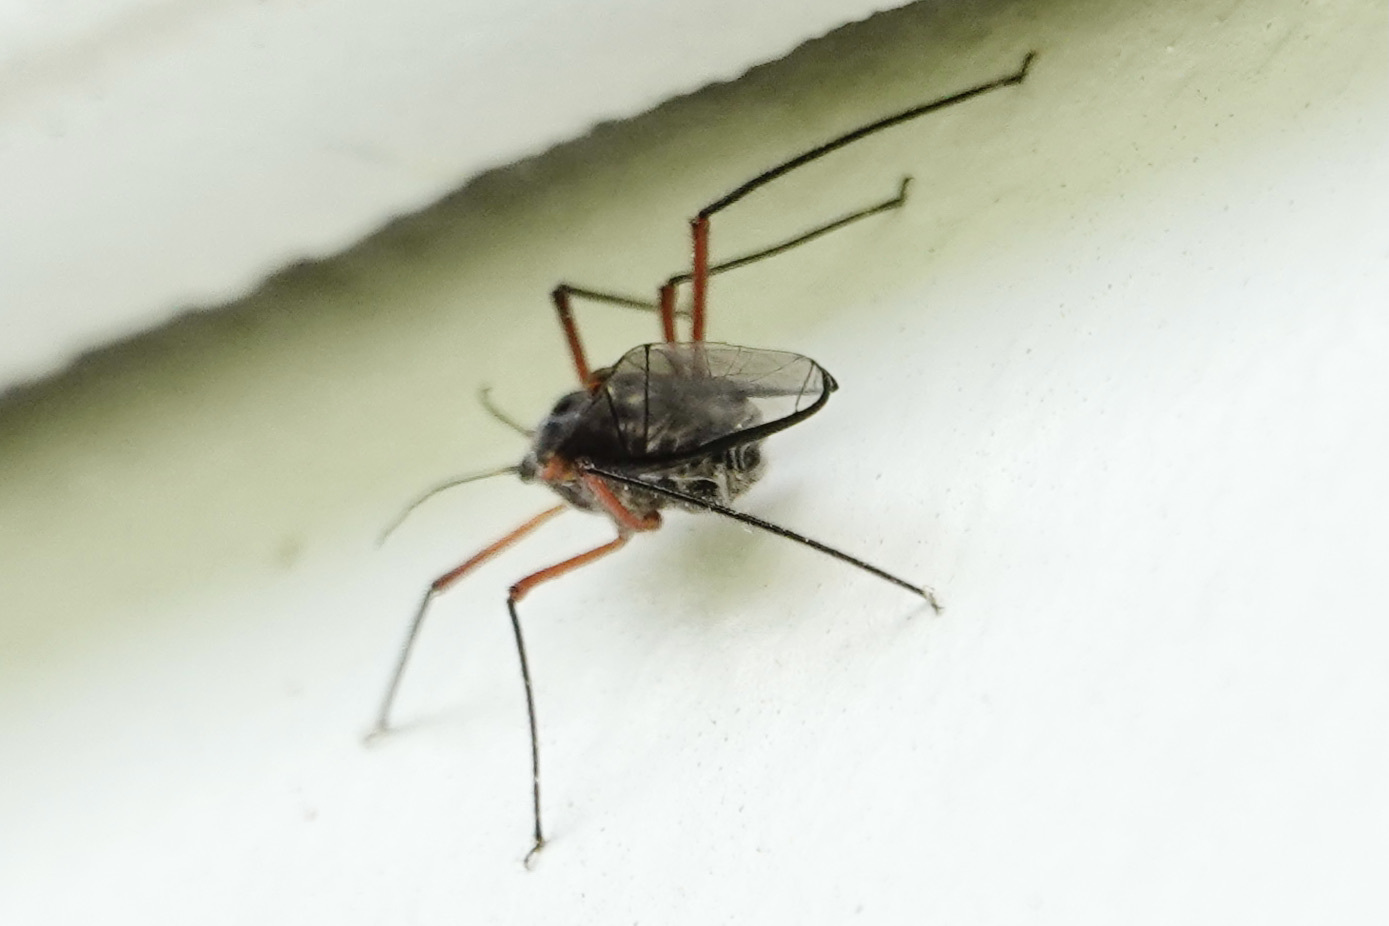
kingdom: Animalia
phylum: Arthropoda
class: Insecta
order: Hemiptera
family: Aphididae
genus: Longistigma
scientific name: Longistigma caryae
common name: Giant bark aphid
